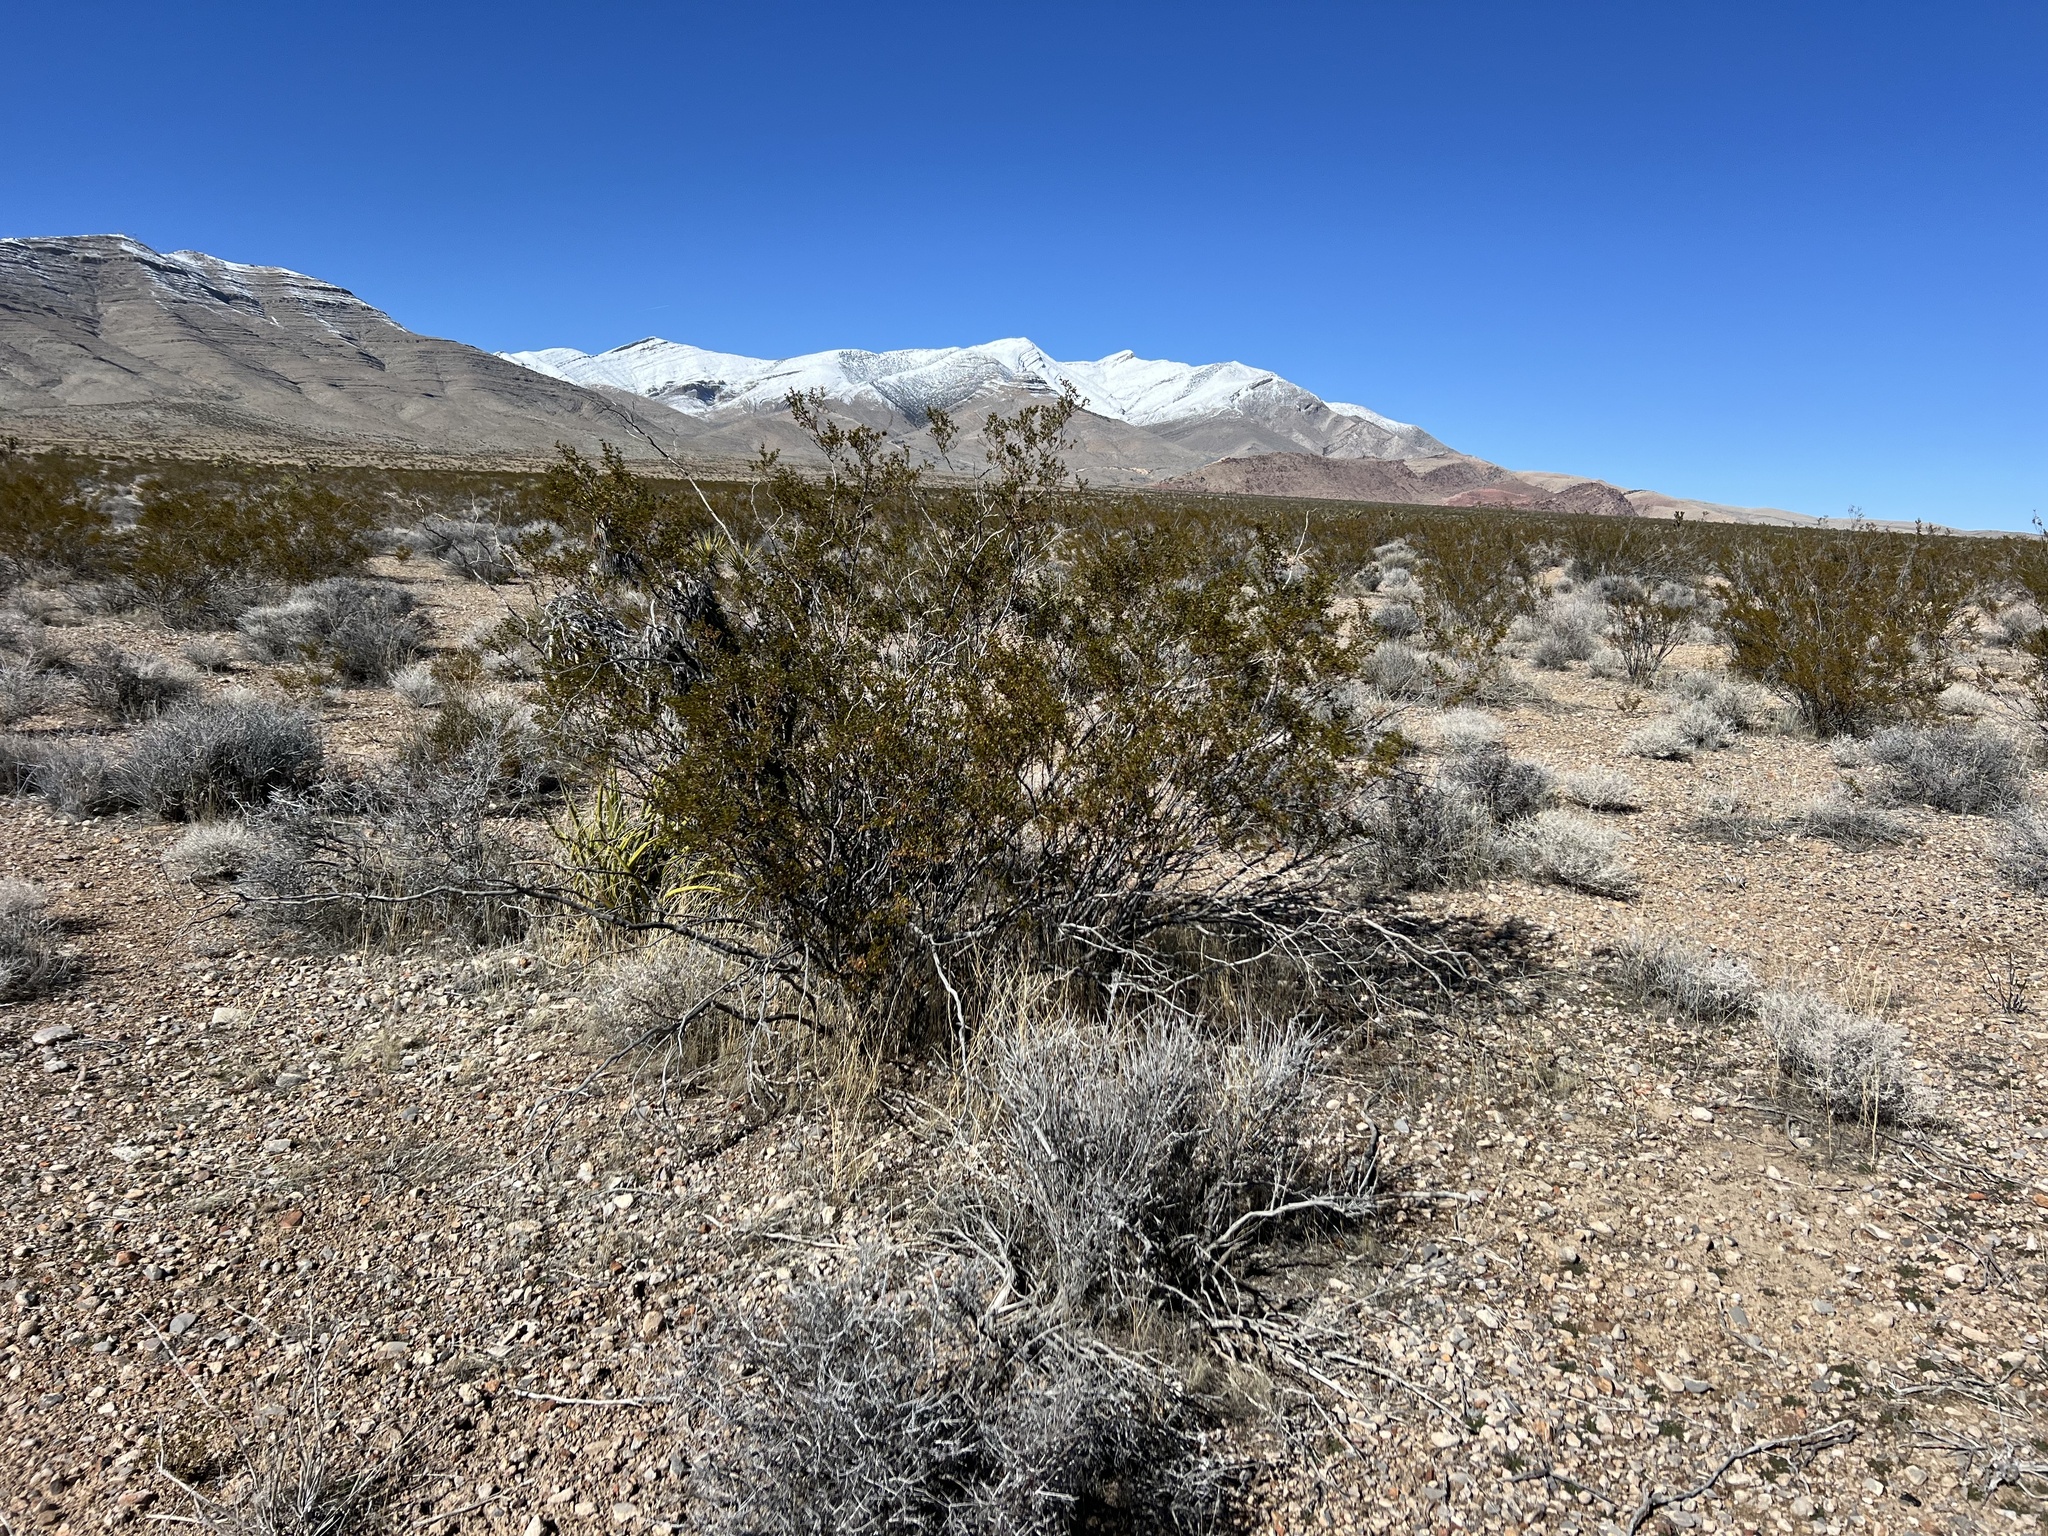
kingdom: Plantae
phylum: Tracheophyta
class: Magnoliopsida
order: Zygophyllales
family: Zygophyllaceae
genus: Larrea
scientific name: Larrea tridentata
